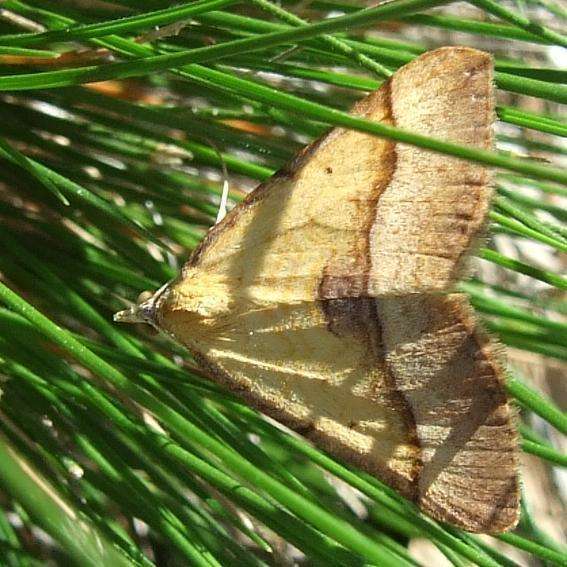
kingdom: Animalia
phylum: Arthropoda
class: Insecta
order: Lepidoptera
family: Geometridae
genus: Anachloris
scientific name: Anachloris subochraria
